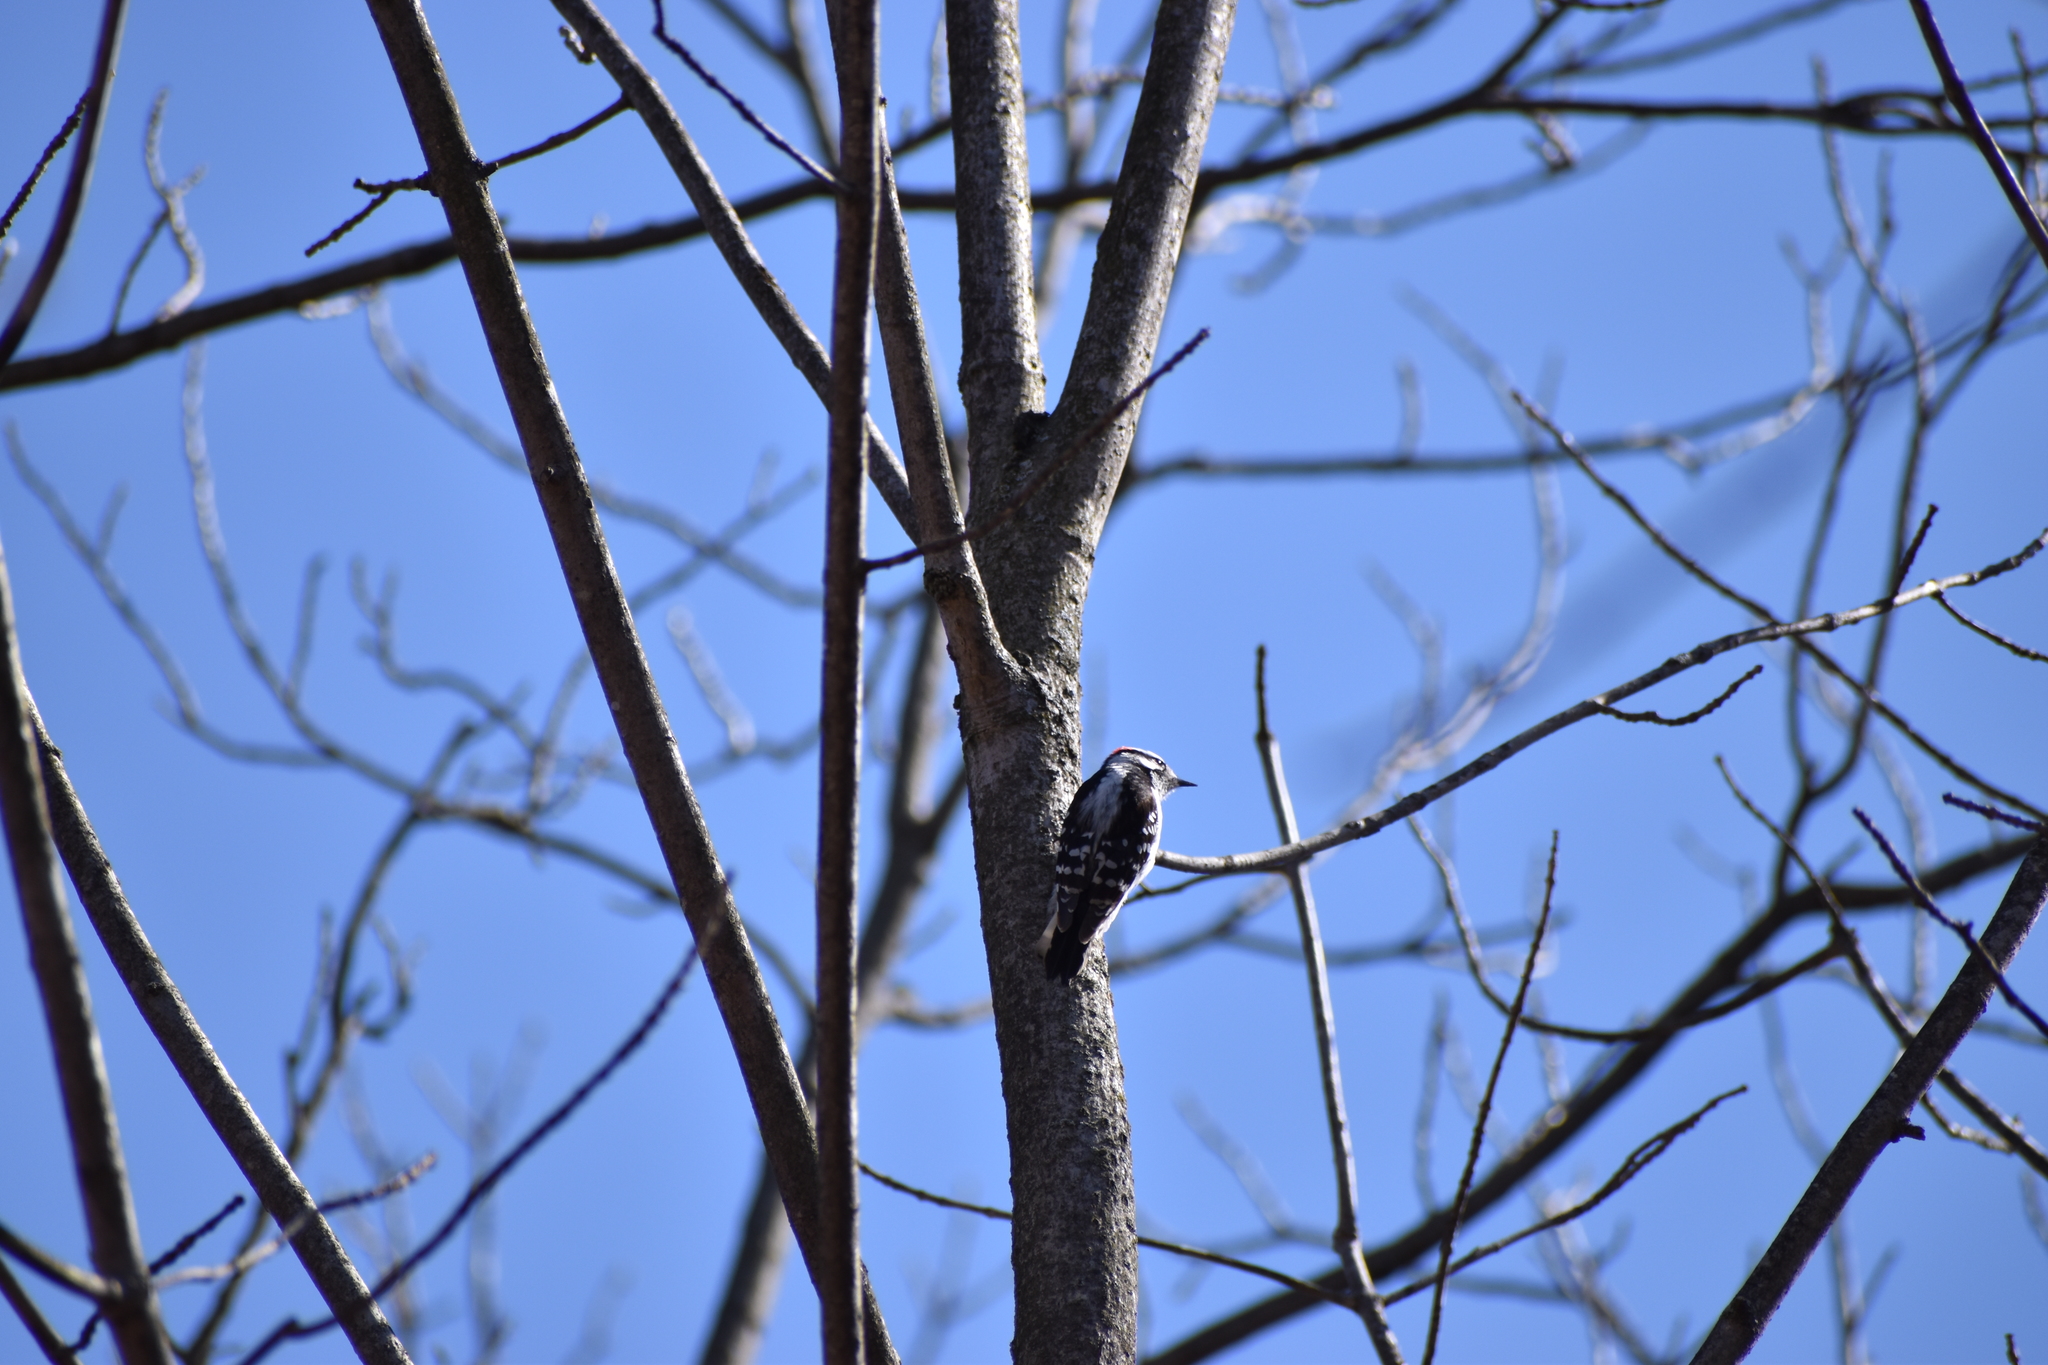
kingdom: Animalia
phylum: Chordata
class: Aves
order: Piciformes
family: Picidae
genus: Dryobates
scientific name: Dryobates pubescens
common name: Downy woodpecker
